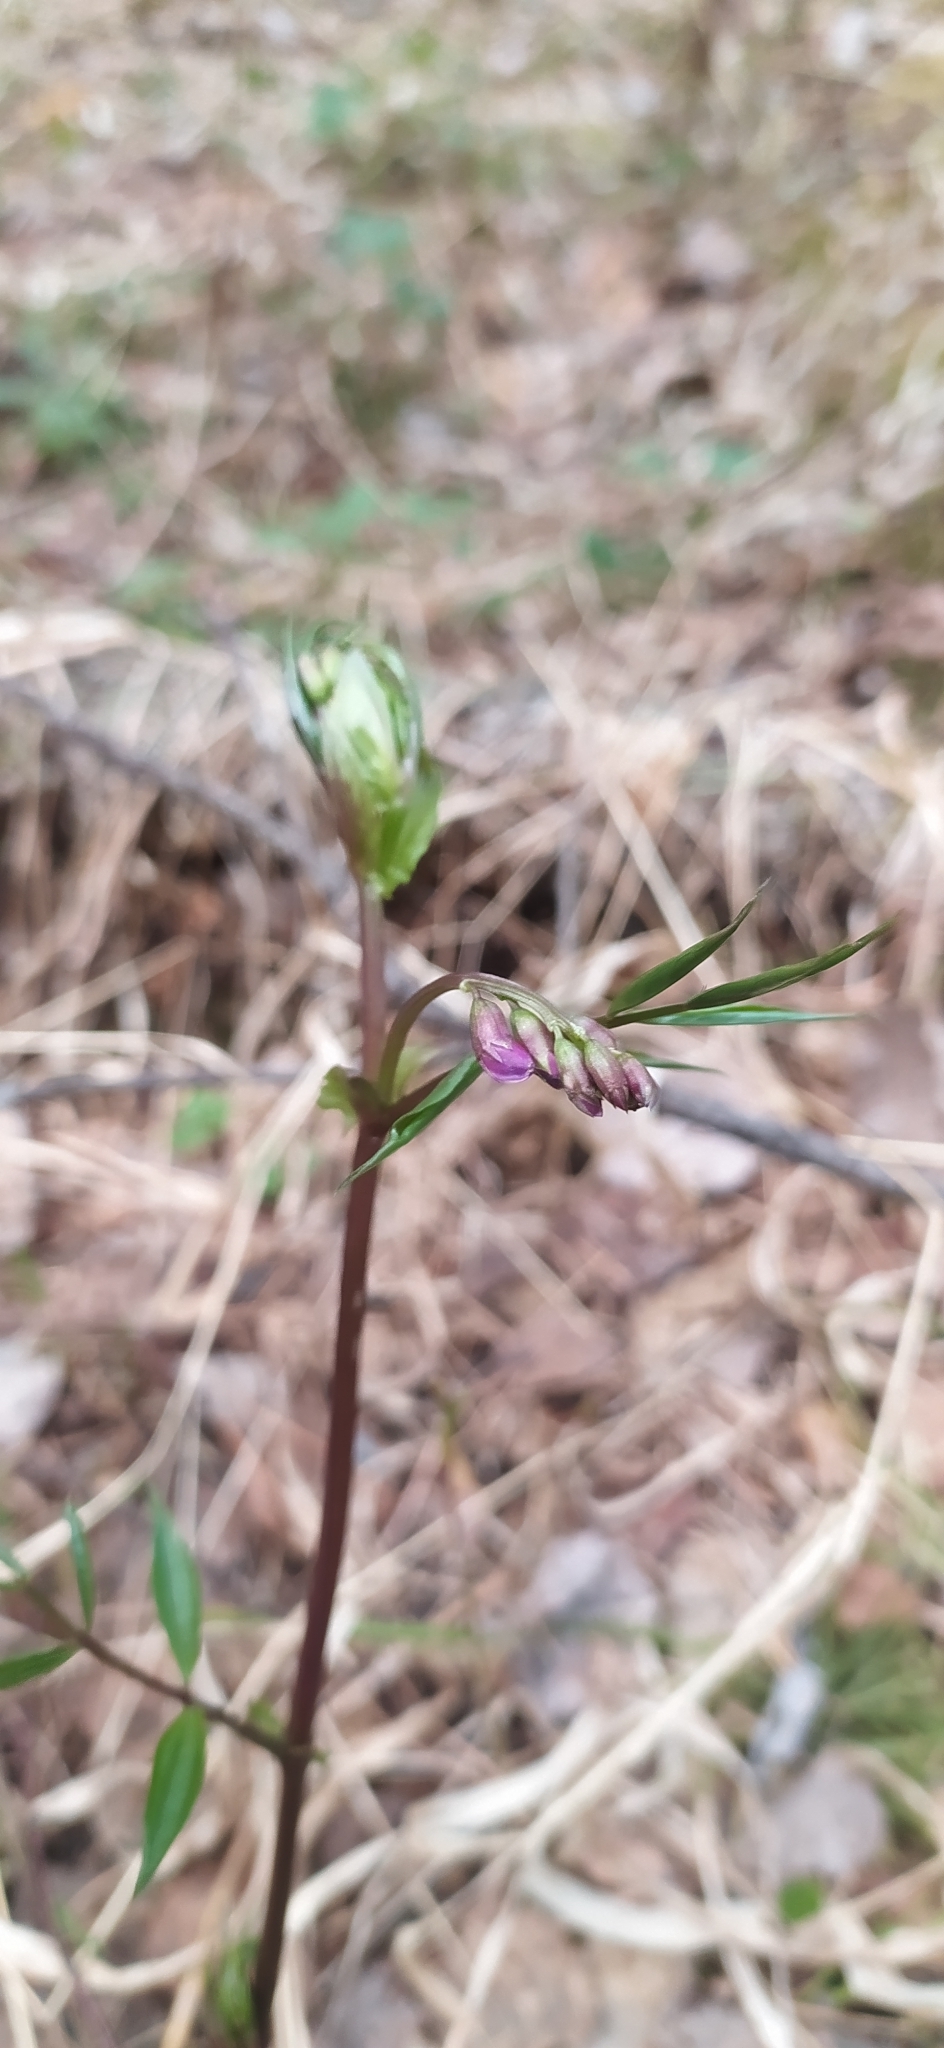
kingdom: Plantae
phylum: Tracheophyta
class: Magnoliopsida
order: Fabales
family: Fabaceae
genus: Lathyrus
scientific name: Lathyrus vernus
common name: Spring pea
